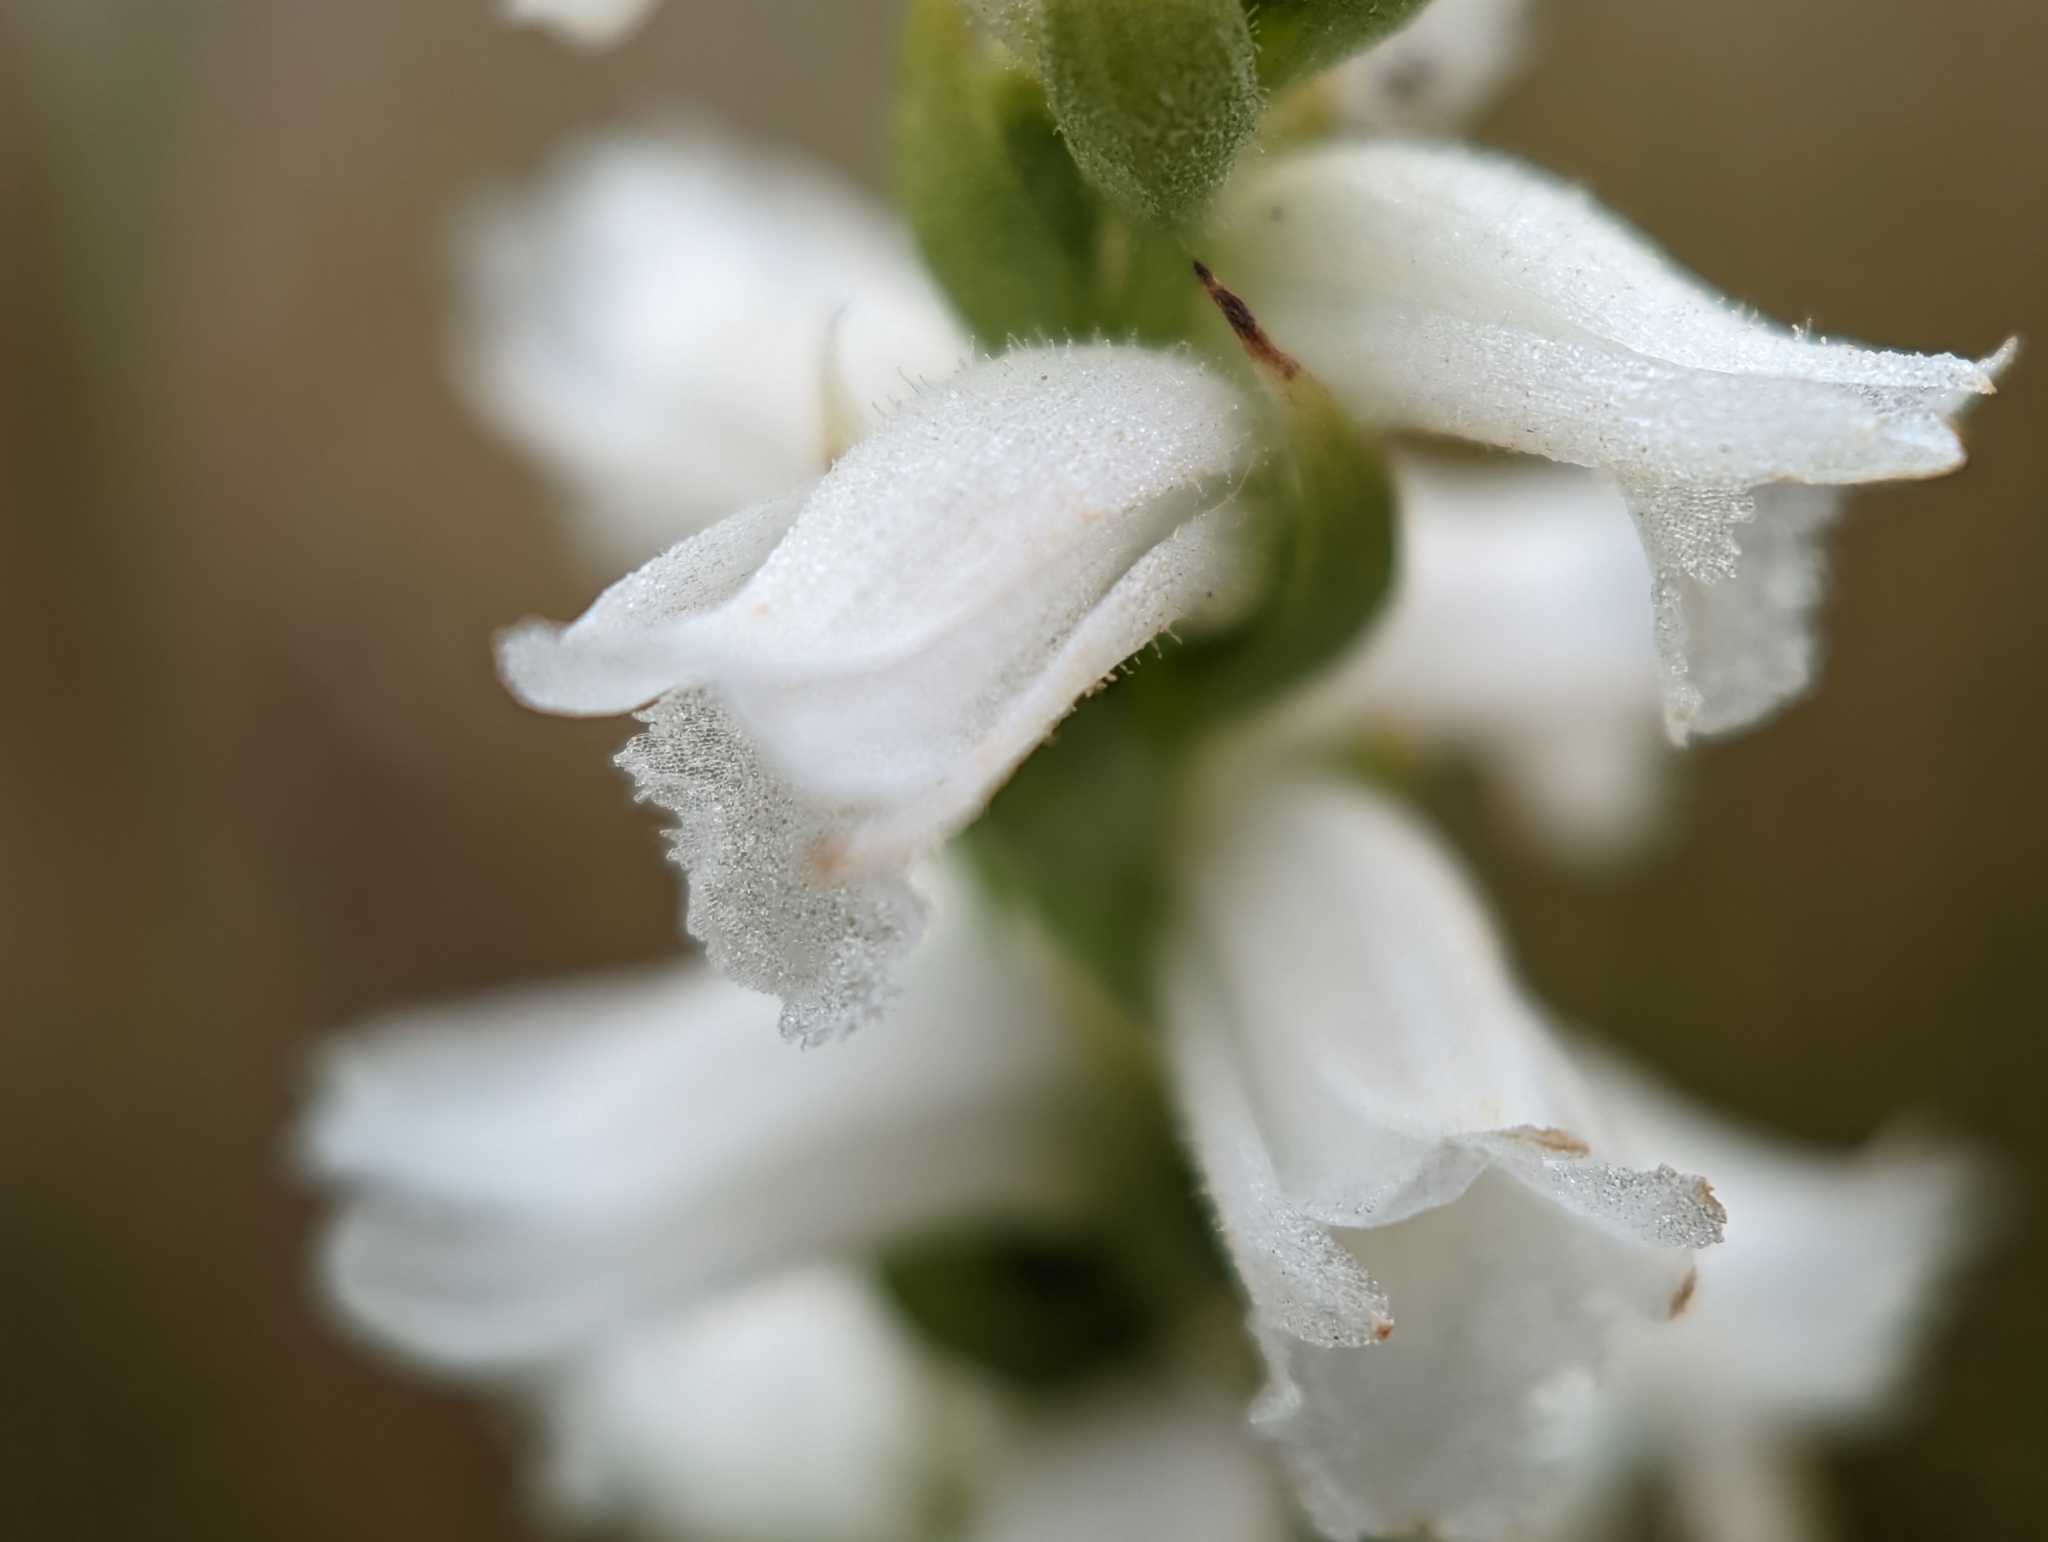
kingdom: Plantae
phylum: Tracheophyta
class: Liliopsida
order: Asparagales
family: Orchidaceae
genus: Spiranthes
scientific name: Spiranthes cernua
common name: Dropping ladies'-tresses
